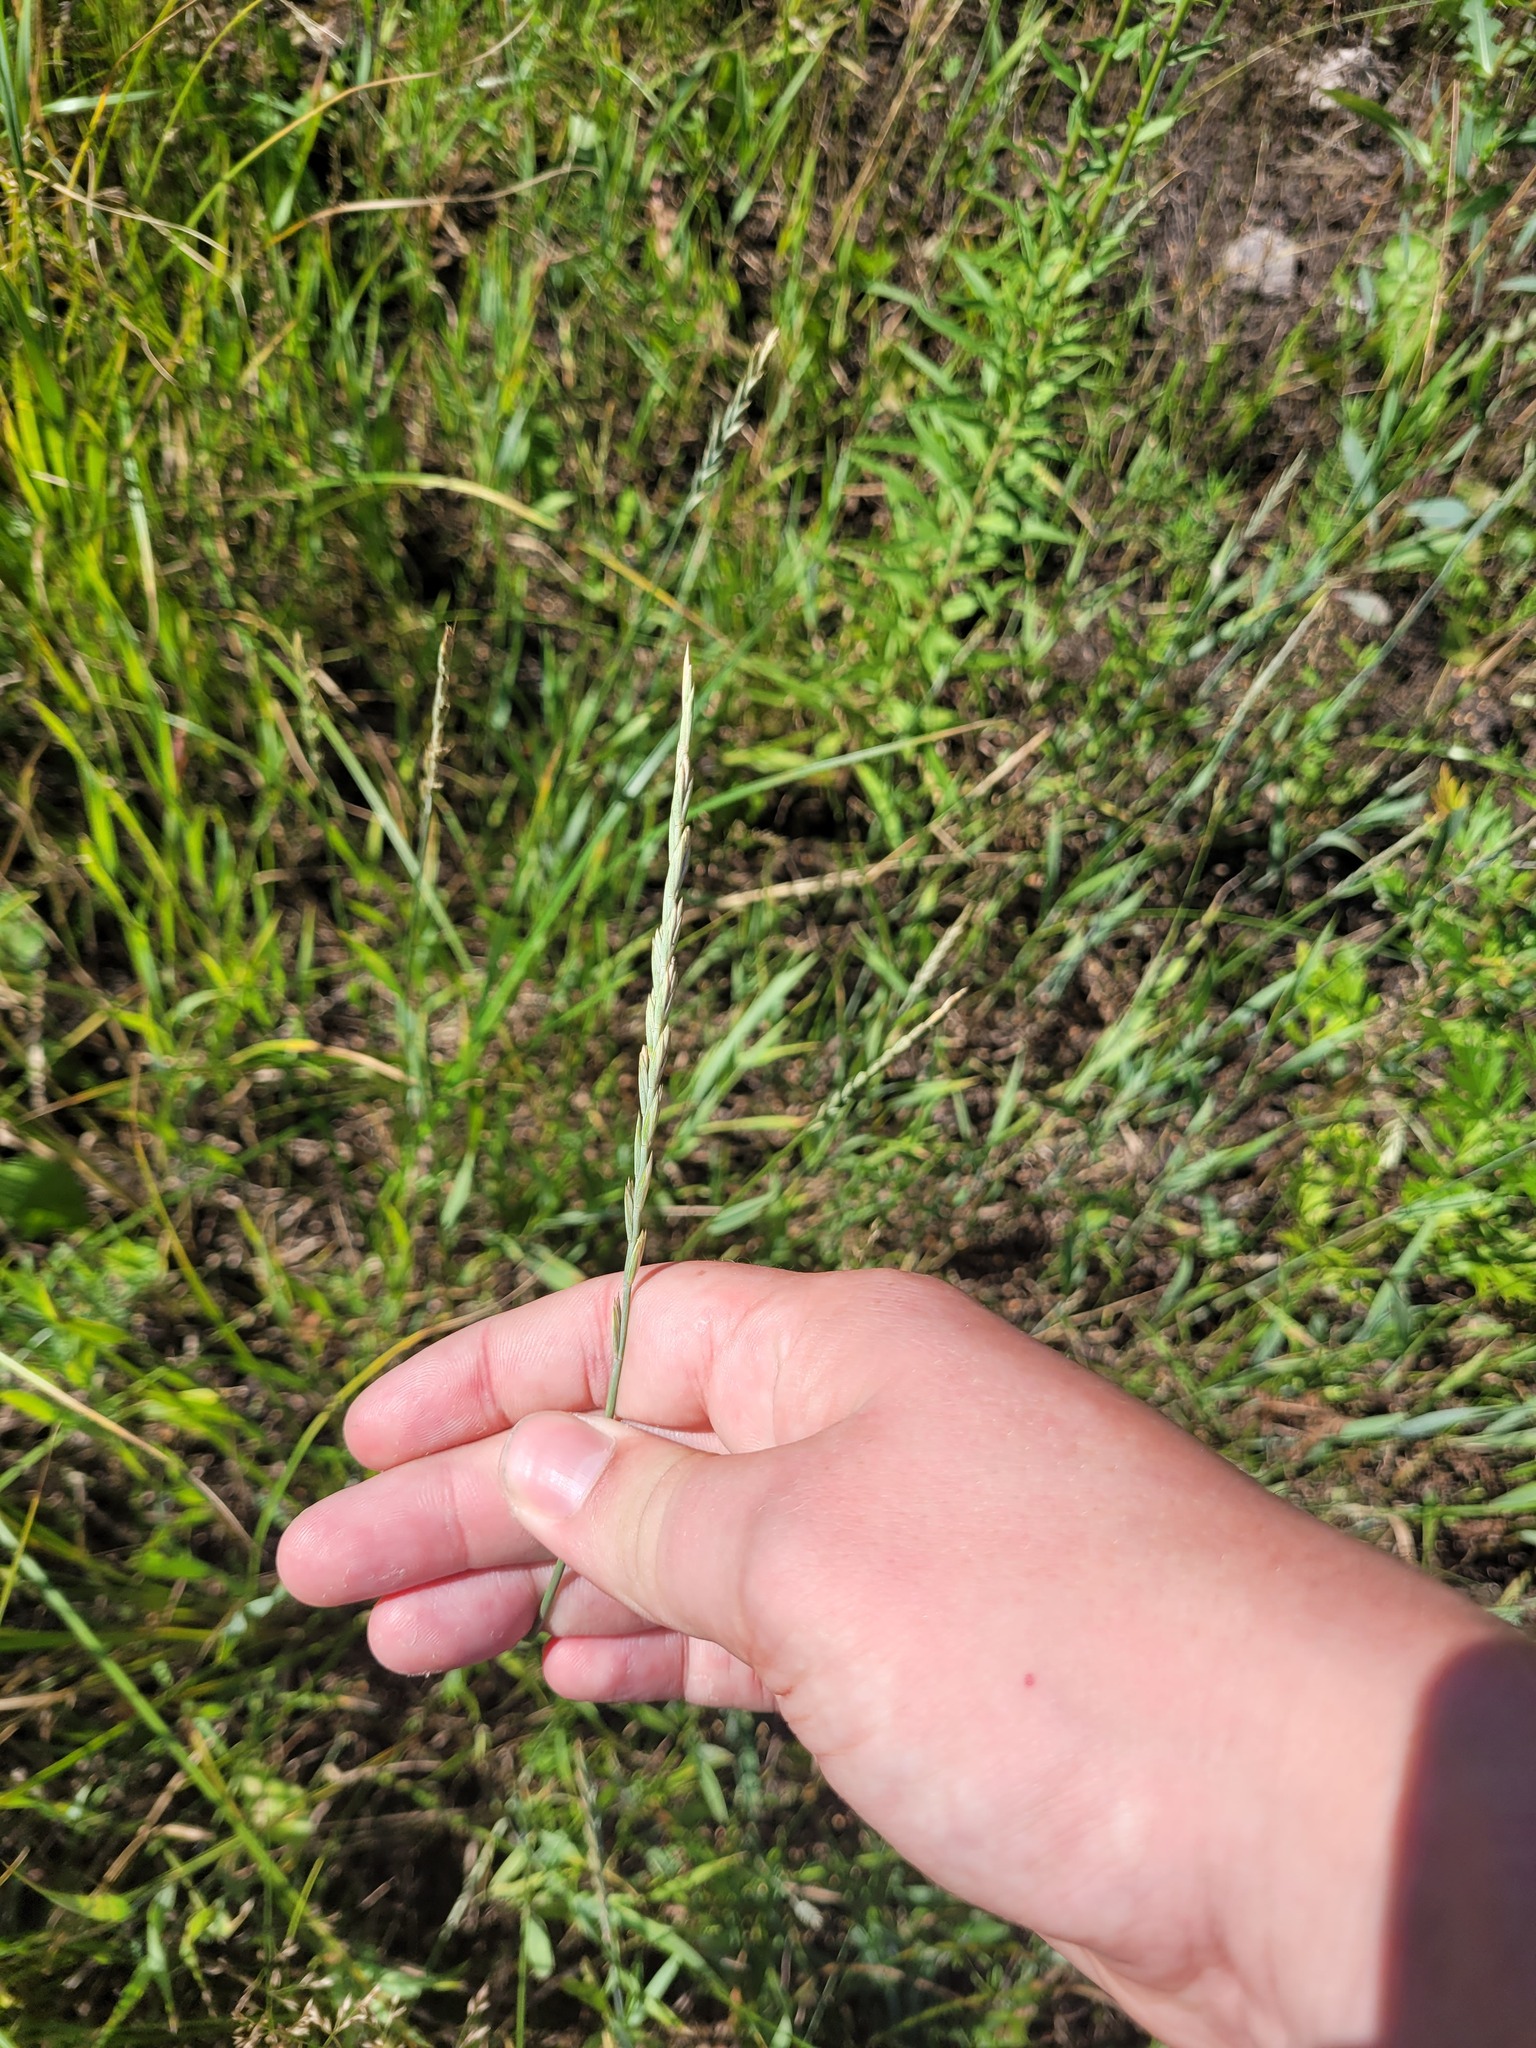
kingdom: Plantae
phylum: Tracheophyta
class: Liliopsida
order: Poales
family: Poaceae
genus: Elymus
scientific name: Elymus repens
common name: Quackgrass
